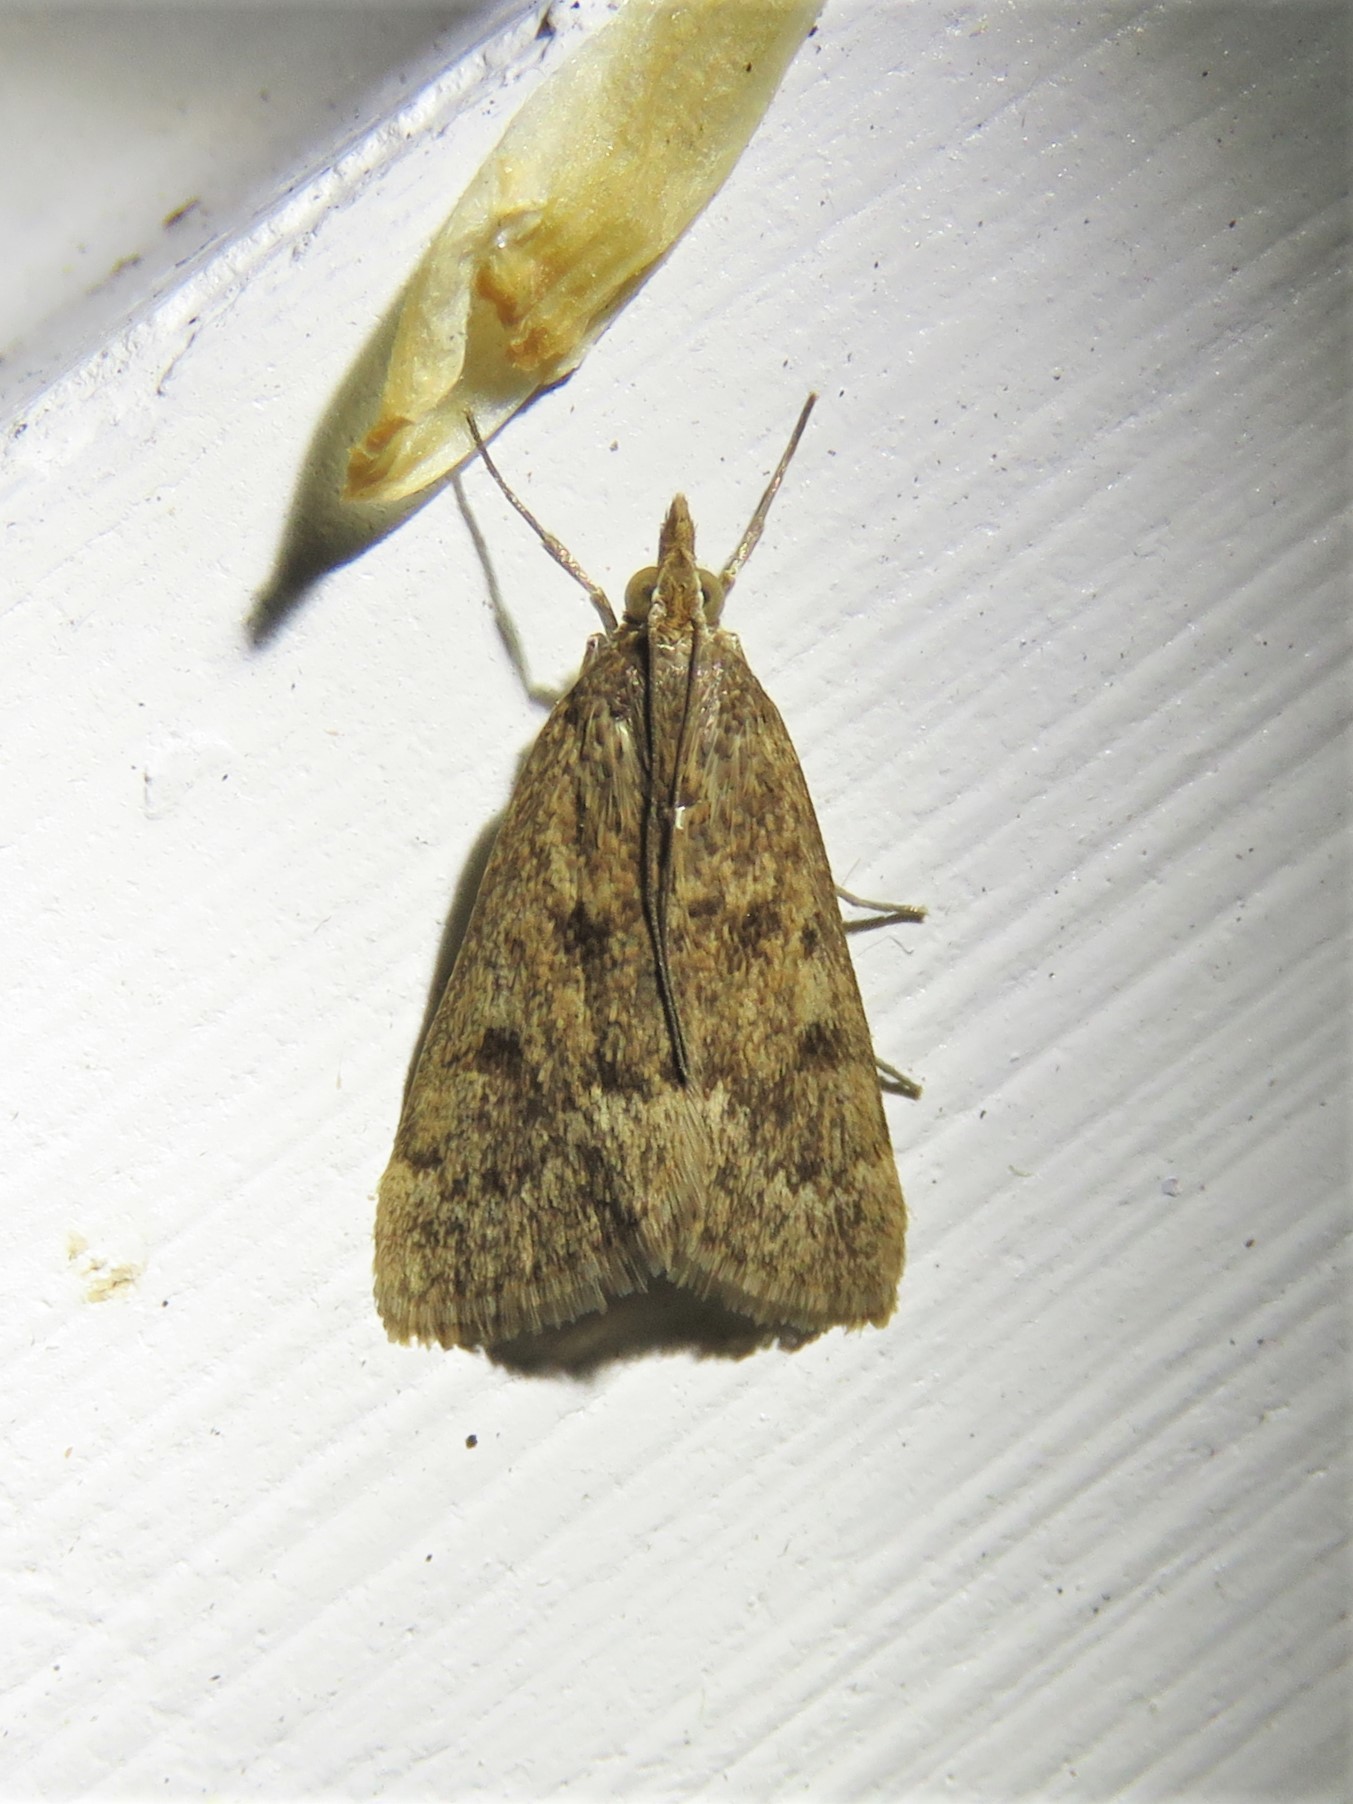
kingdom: Animalia
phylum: Arthropoda
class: Insecta
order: Lepidoptera
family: Crambidae
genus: Achyra
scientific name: Achyra rantalis
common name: Garden webworm
